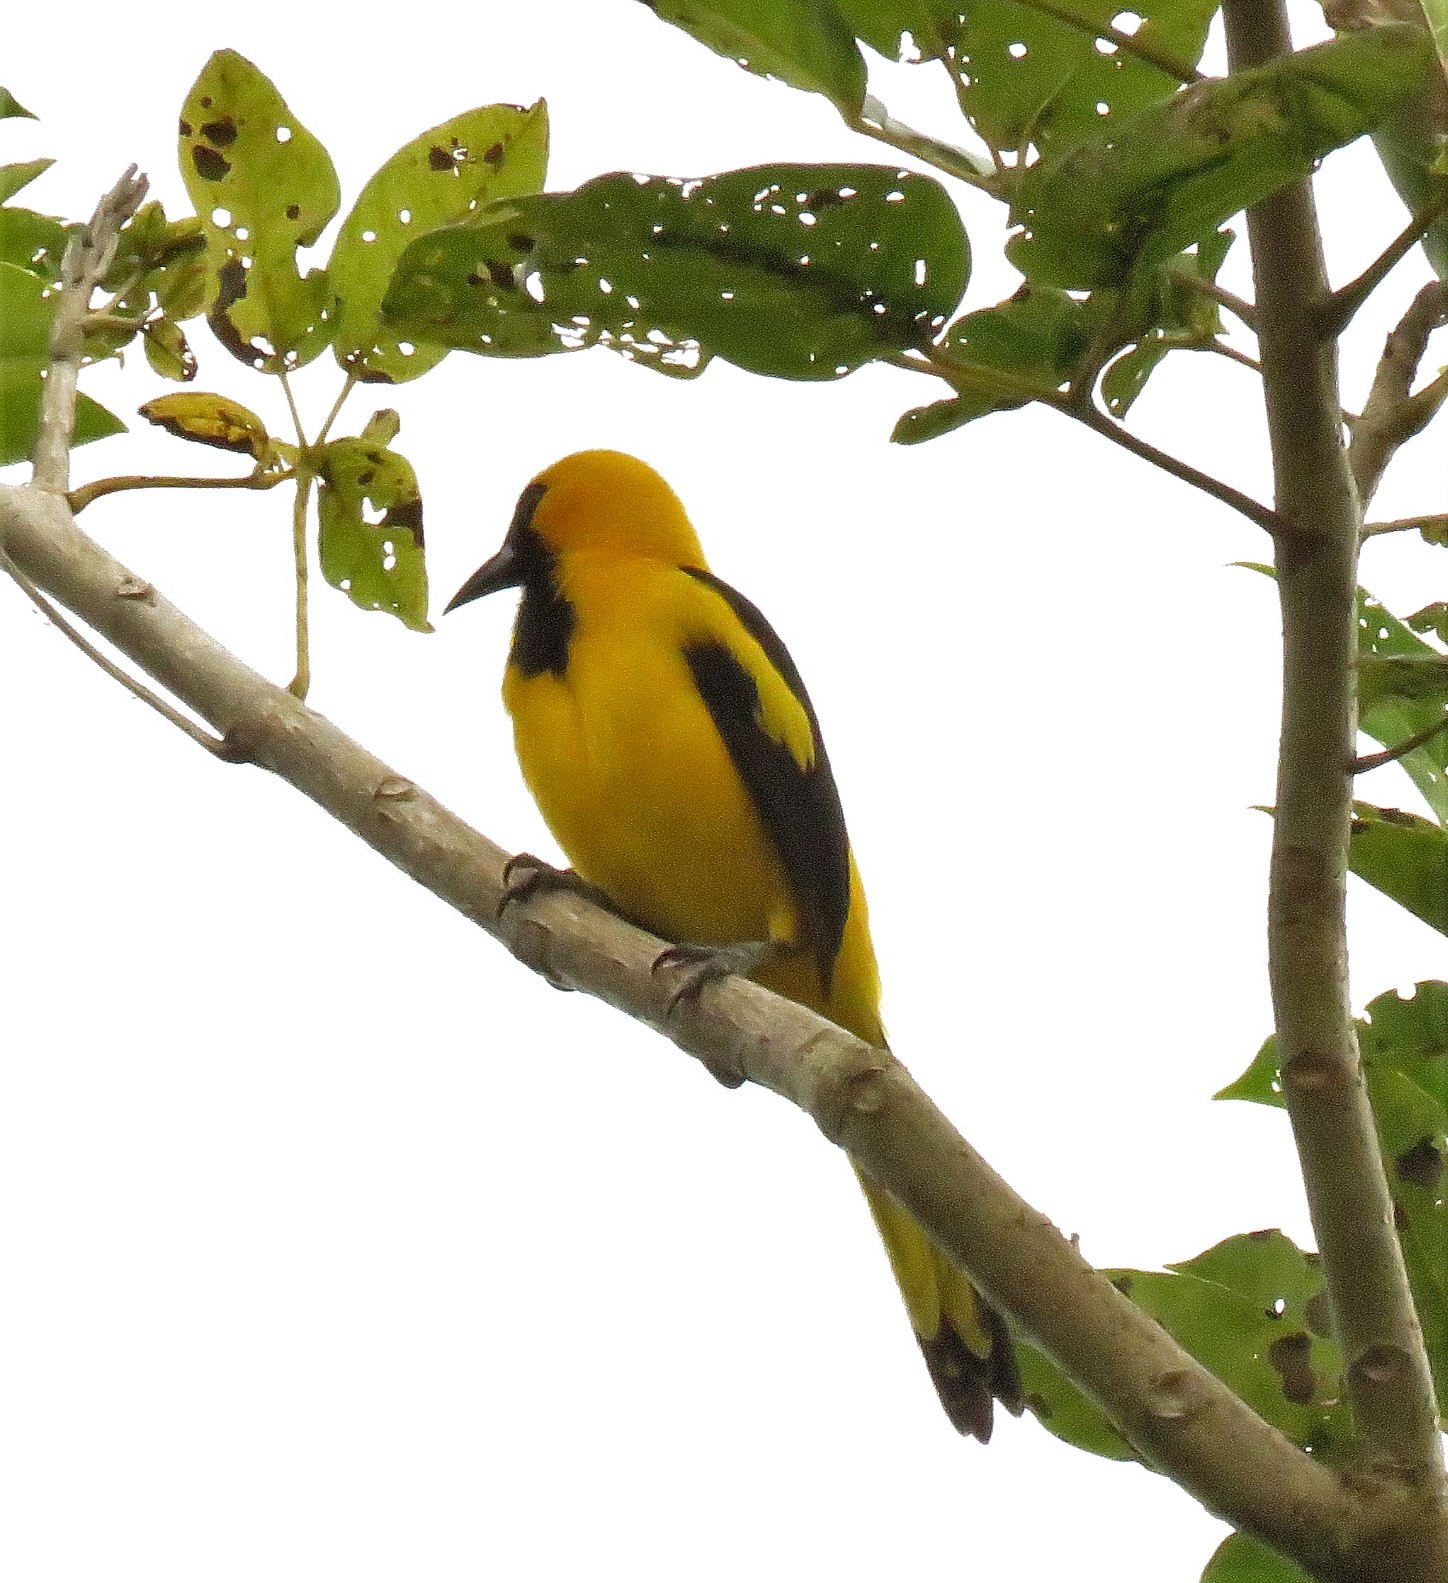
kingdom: Animalia
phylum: Chordata
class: Aves
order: Passeriformes
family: Icteridae
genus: Icterus
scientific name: Icterus mesomelas
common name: Yellow-tailed oriole
